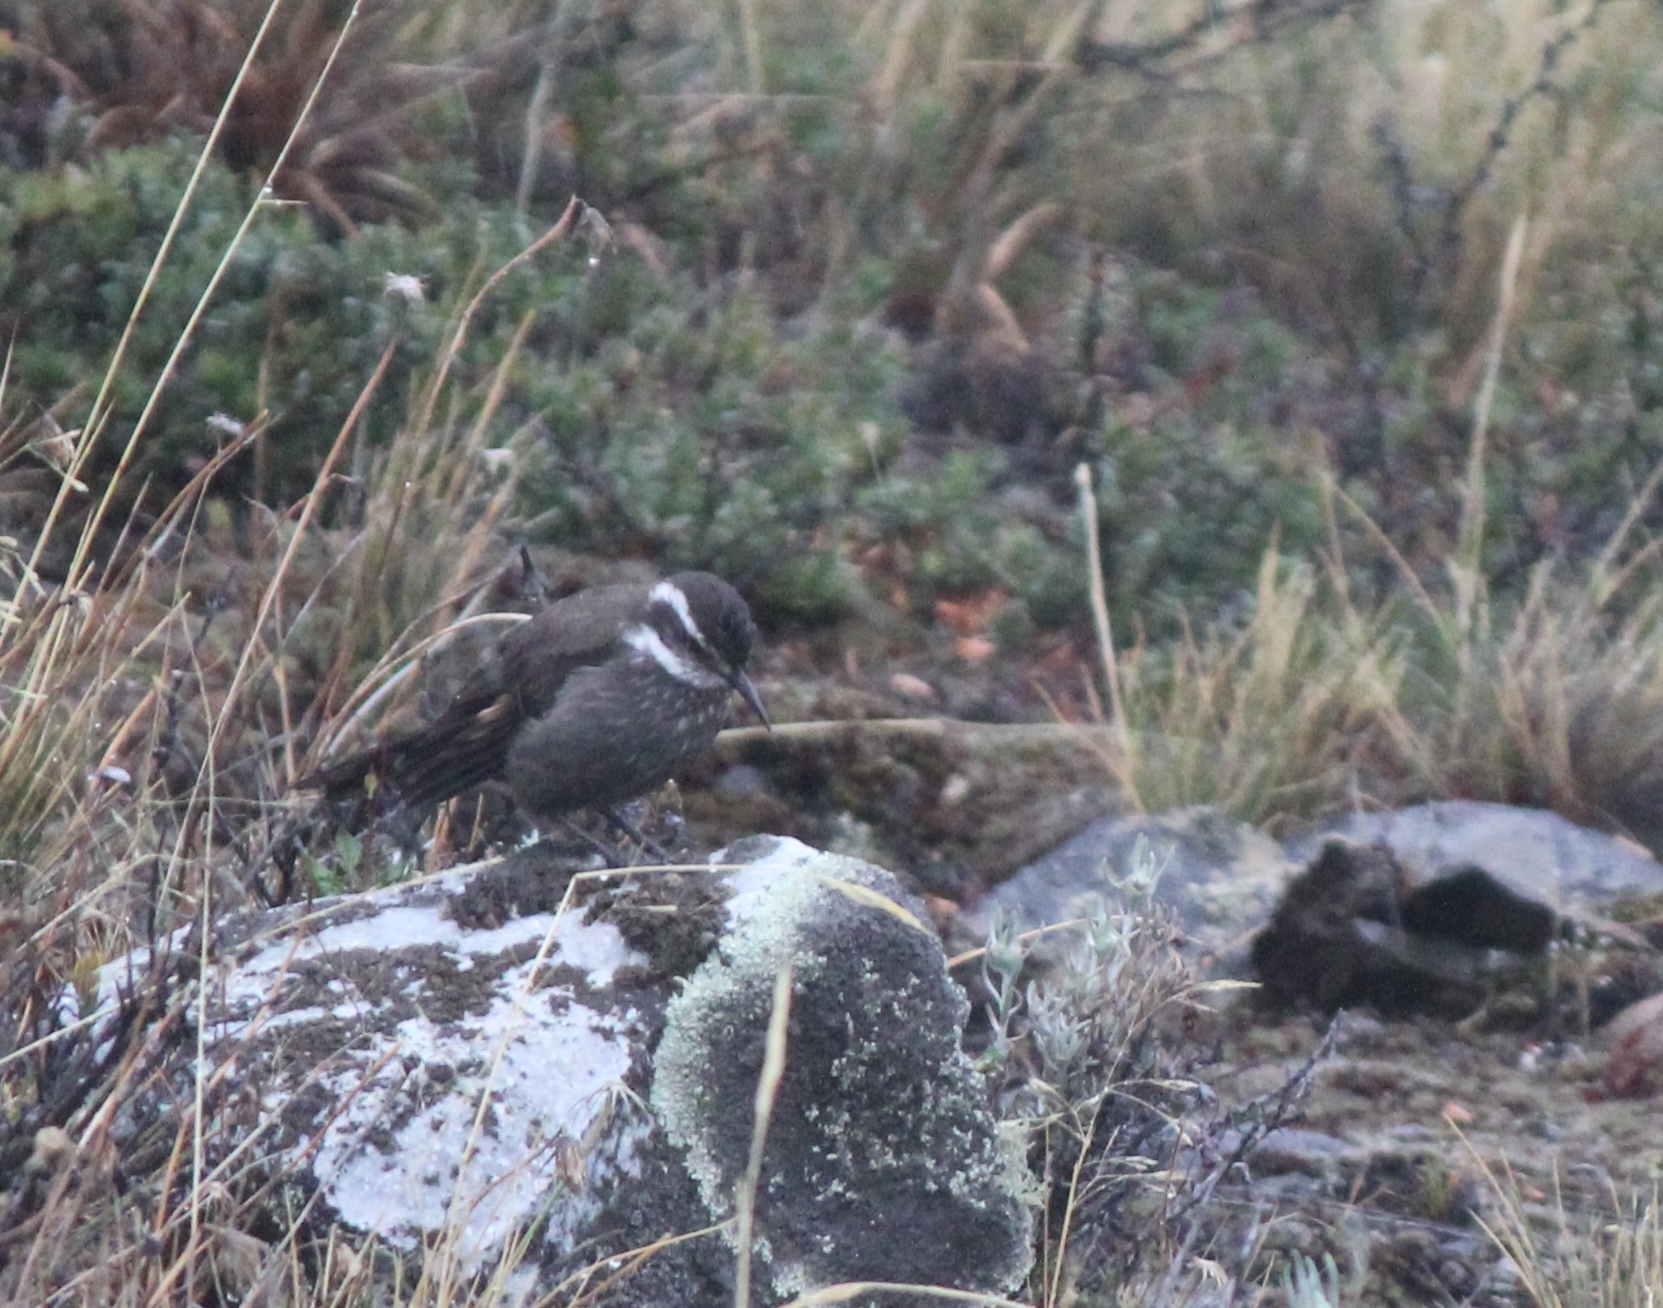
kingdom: Animalia
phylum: Chordata
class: Aves
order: Passeriformes
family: Furnariidae
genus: Cinclodes
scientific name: Cinclodes patagonicus
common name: Dark-bellied cinclodes
